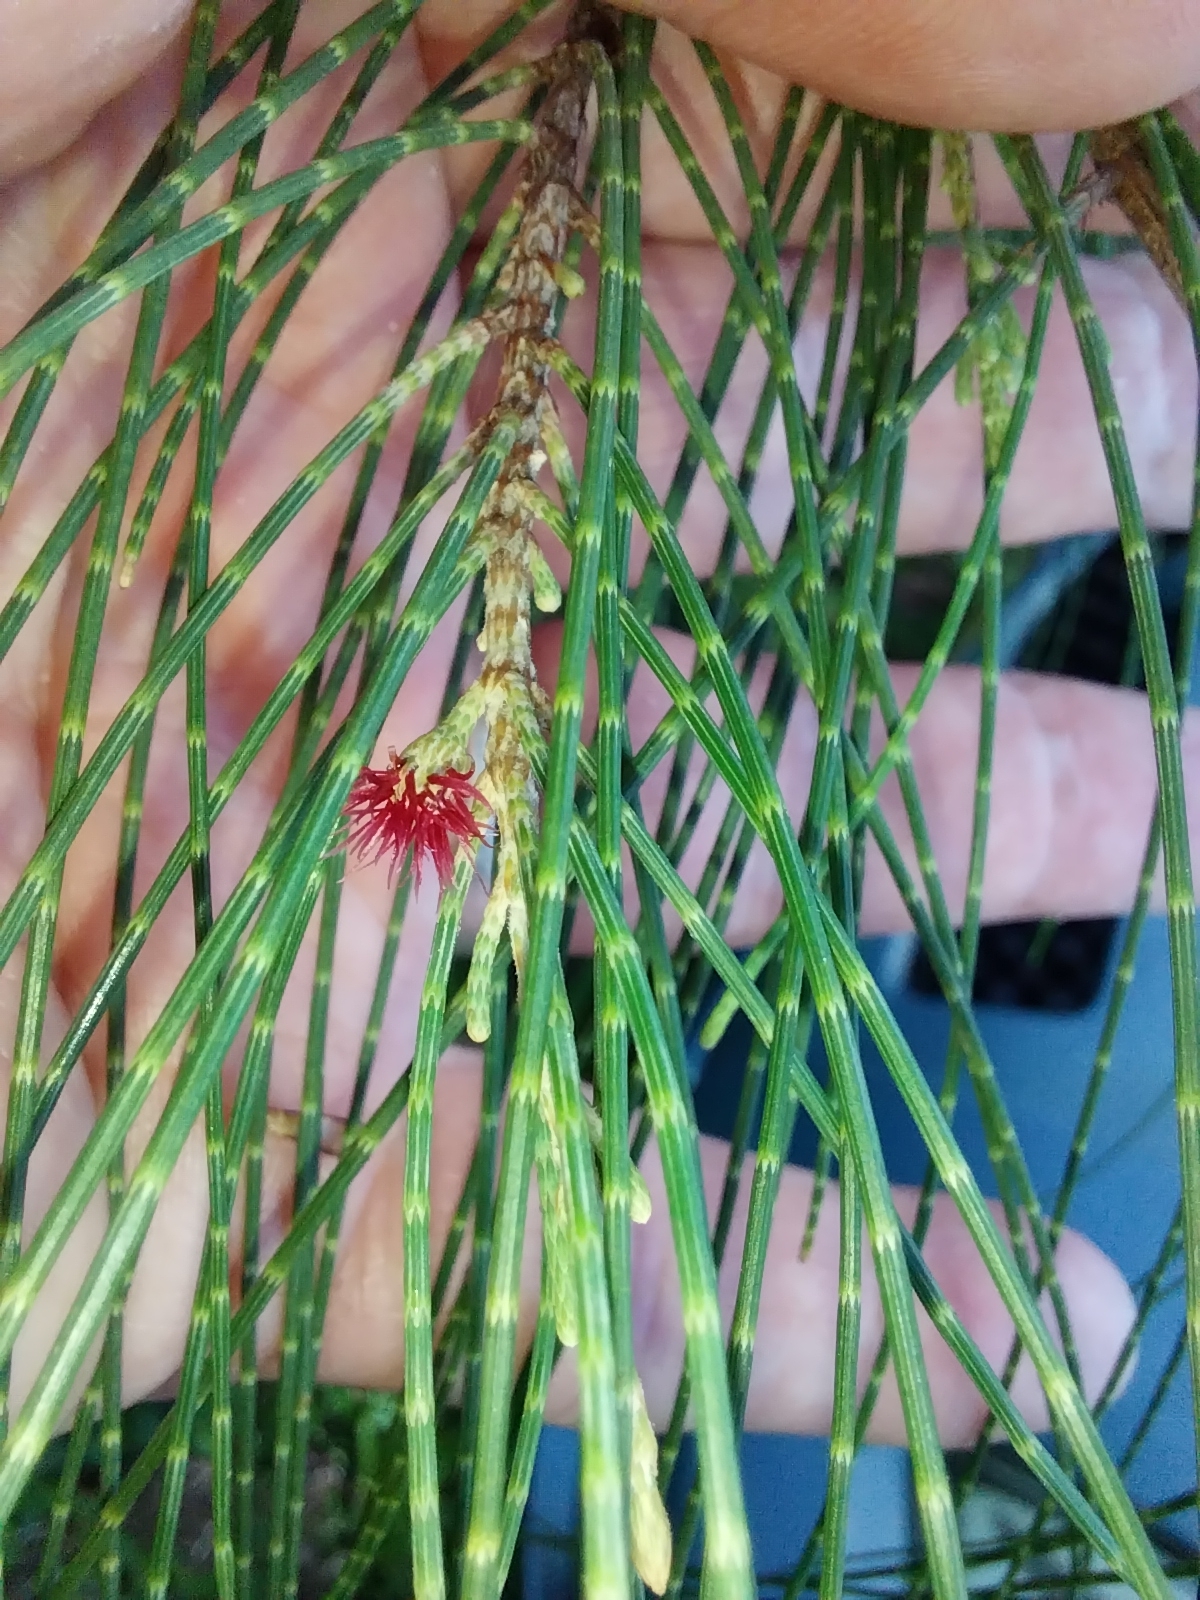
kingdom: Plantae
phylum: Tracheophyta
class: Magnoliopsida
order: Fagales
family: Casuarinaceae
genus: Casuarina
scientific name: Casuarina equisetifolia
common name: Beach sheoak
